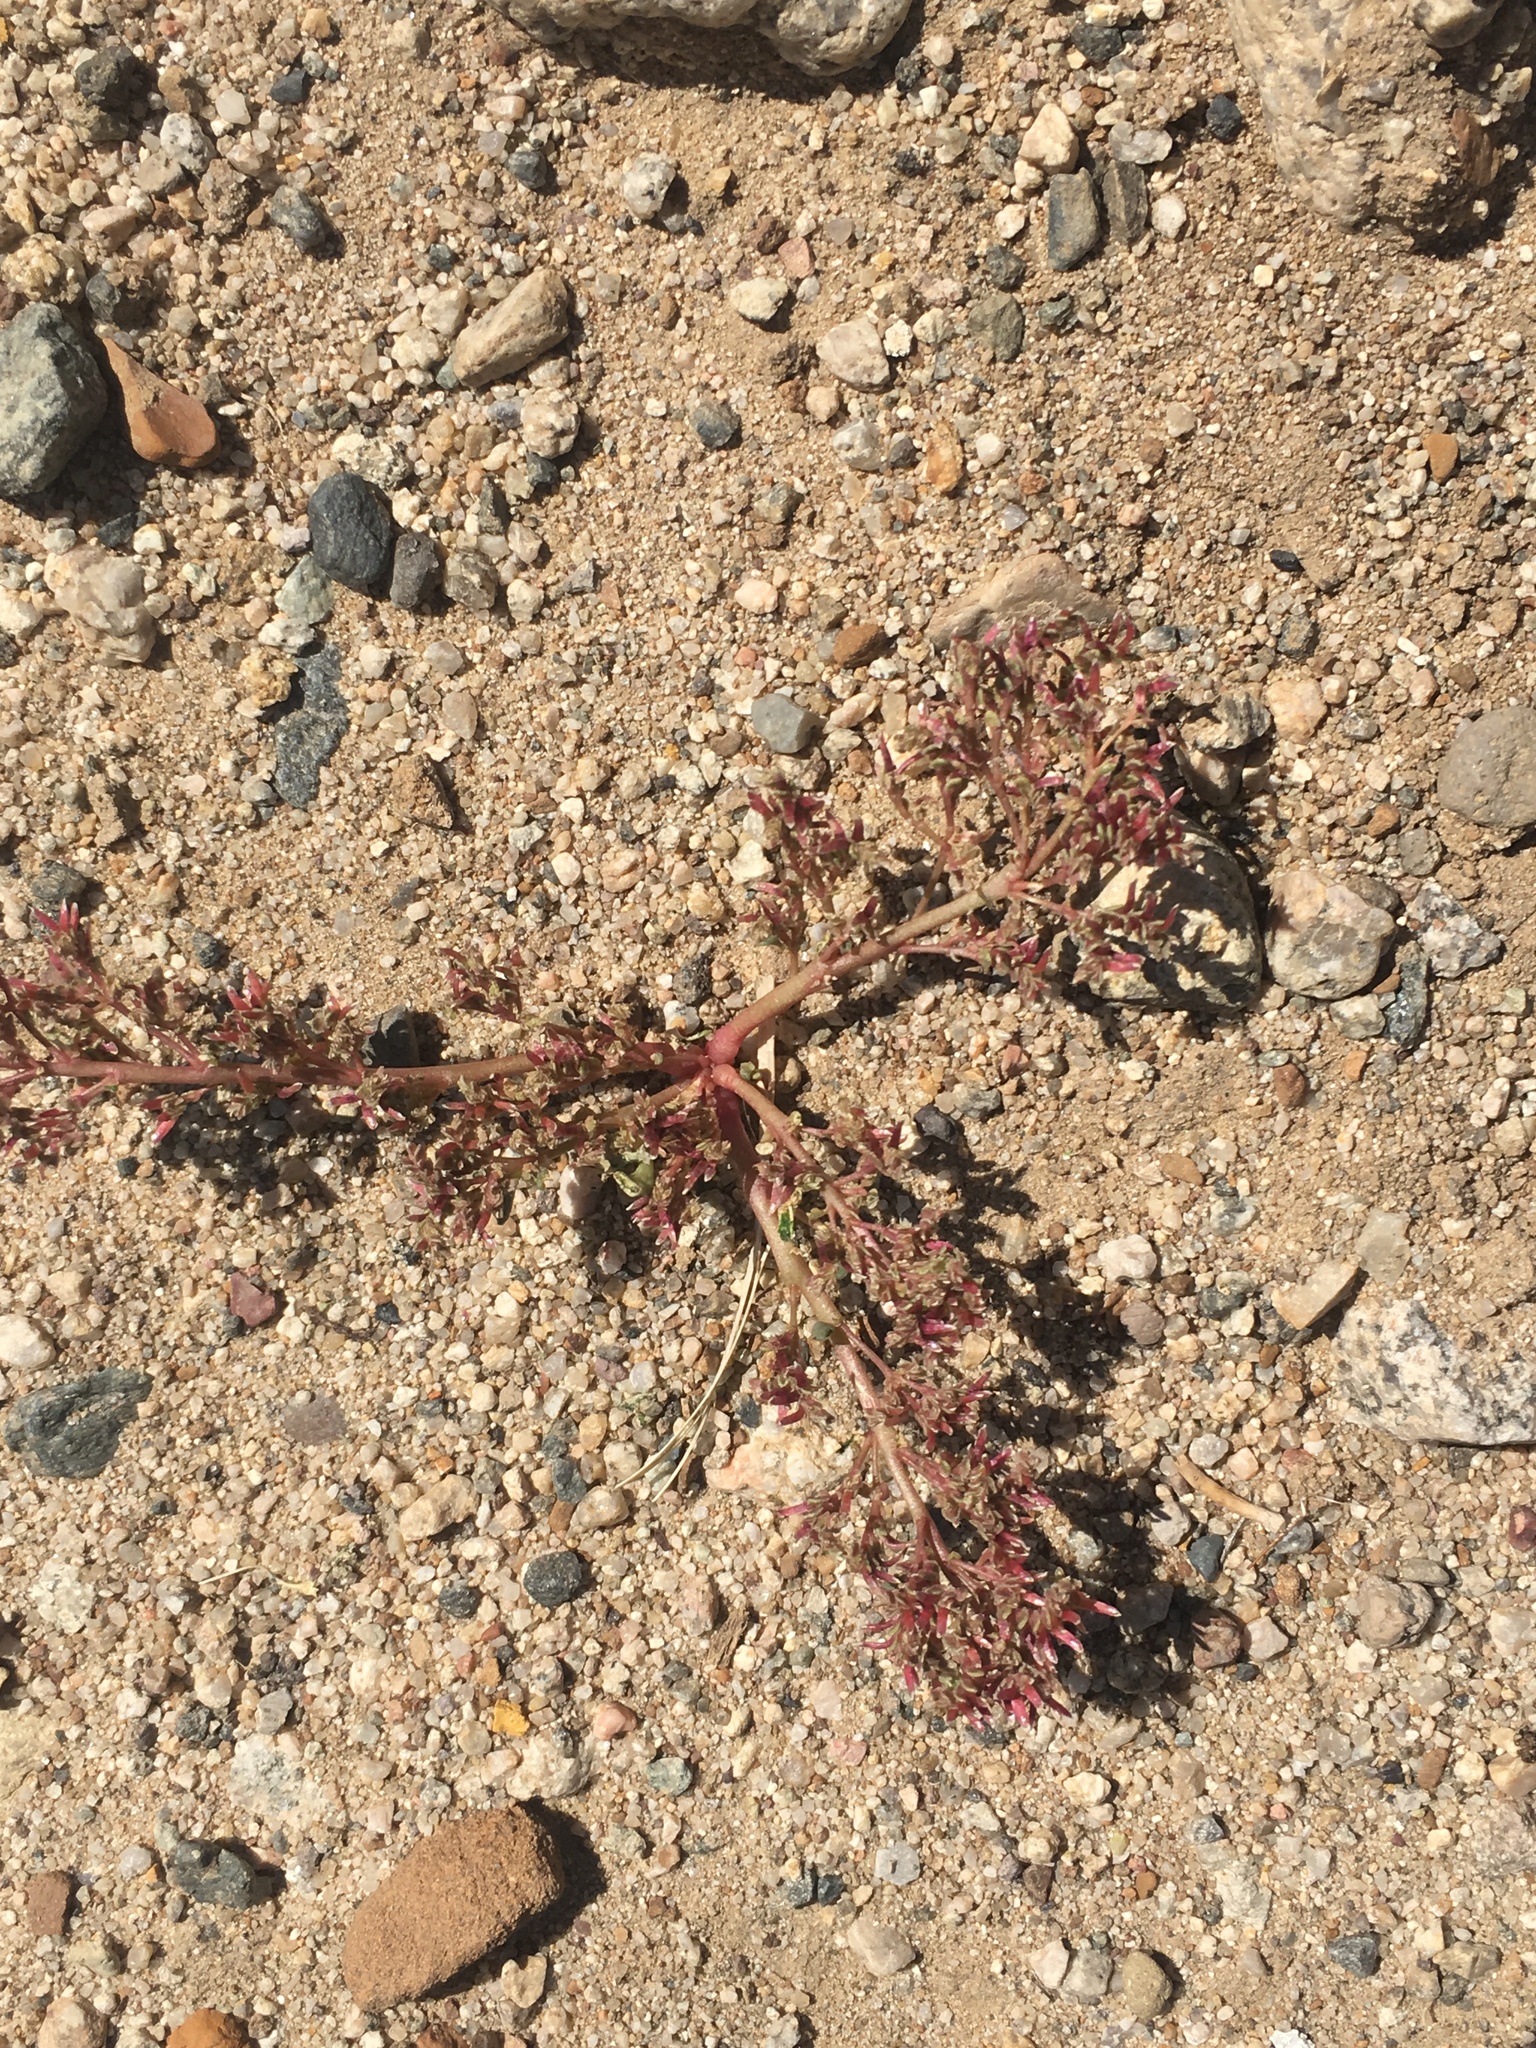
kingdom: Plantae
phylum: Tracheophyta
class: Magnoliopsida
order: Caryophyllales
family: Montiaceae
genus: Calyptridium
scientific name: Calyptridium monandrum
